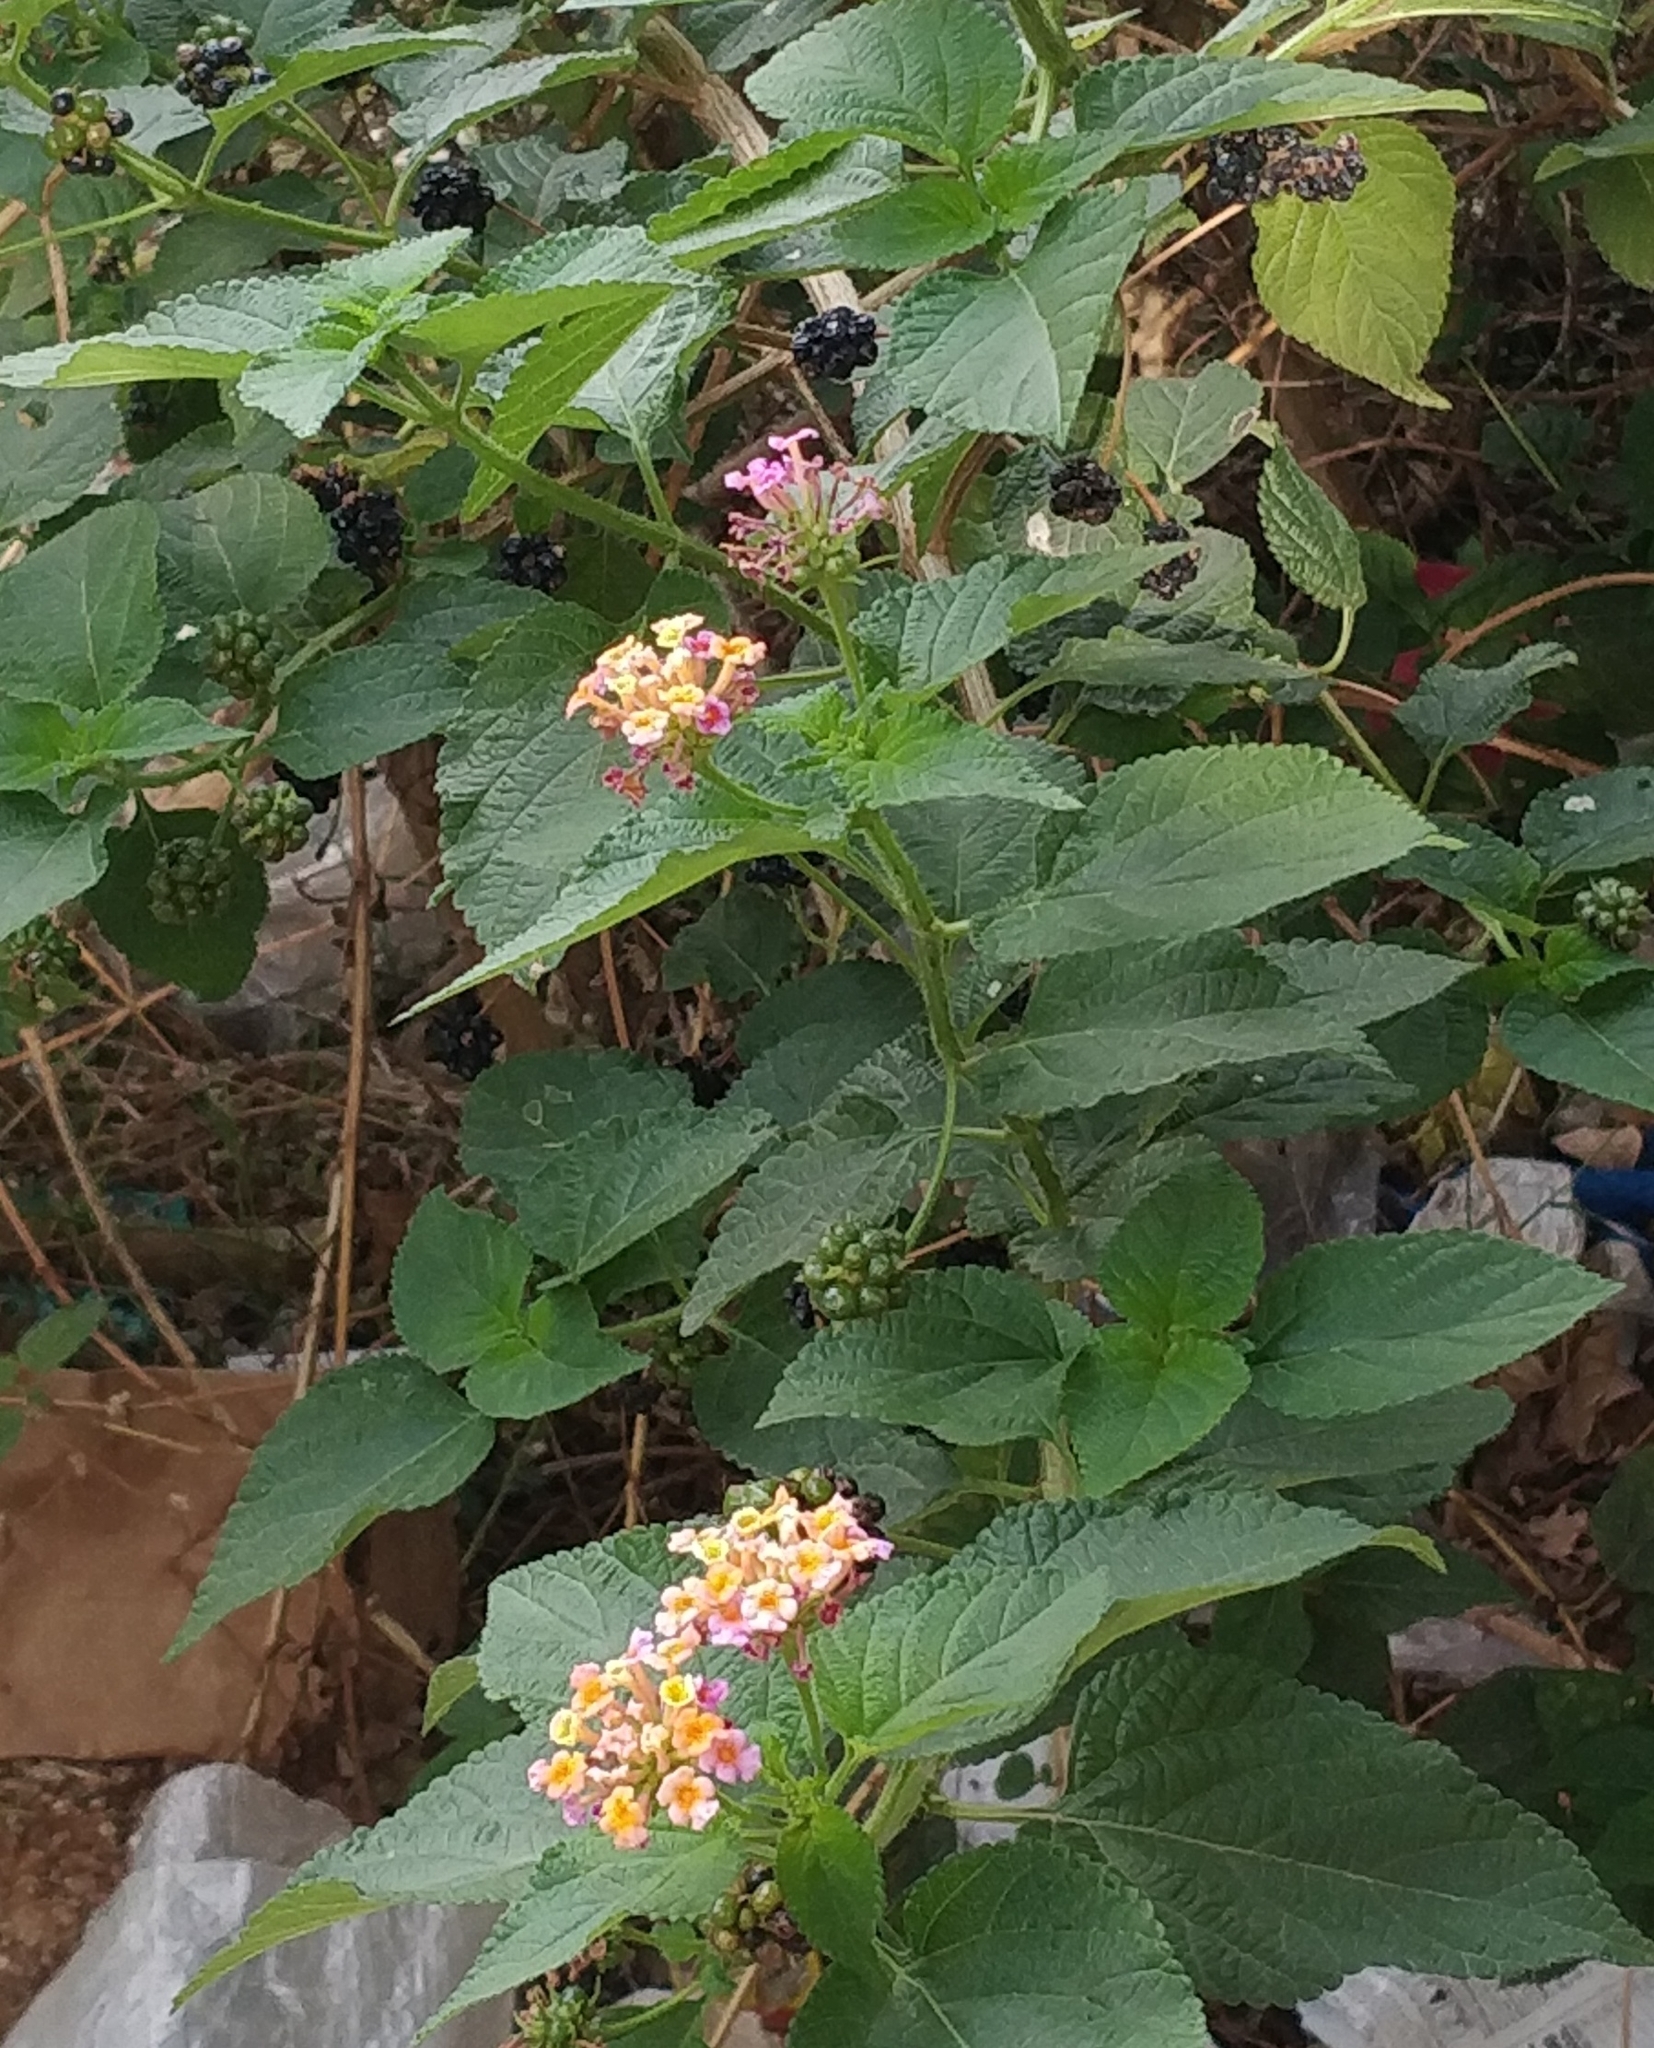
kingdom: Plantae
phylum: Tracheophyta
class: Magnoliopsida
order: Lamiales
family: Verbenaceae
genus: Lantana
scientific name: Lantana camara
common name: Lantana
